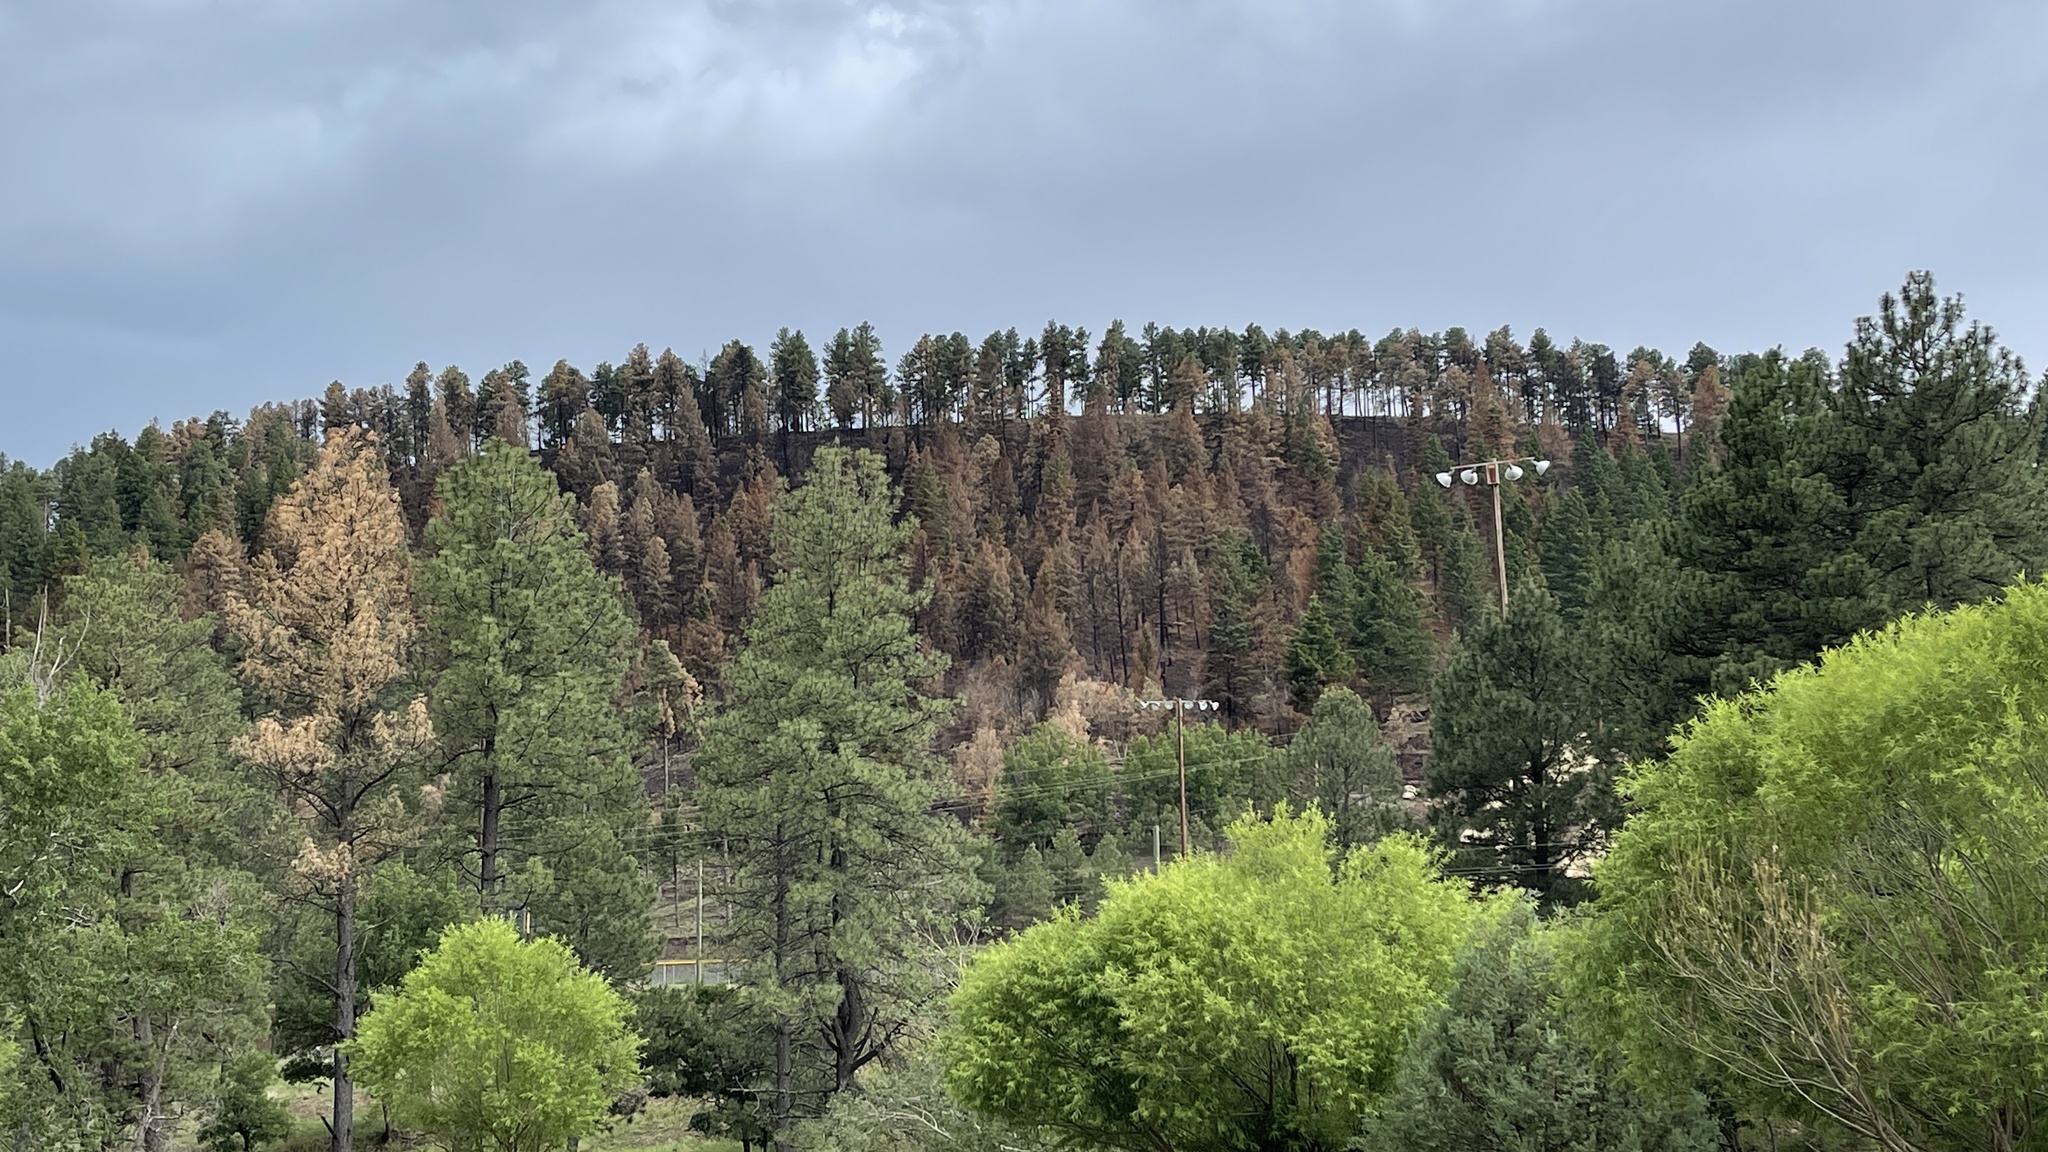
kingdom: Plantae
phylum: Tracheophyta
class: Pinopsida
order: Pinales
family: Pinaceae
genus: Pinus
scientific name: Pinus ponderosa
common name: Western yellow-pine
